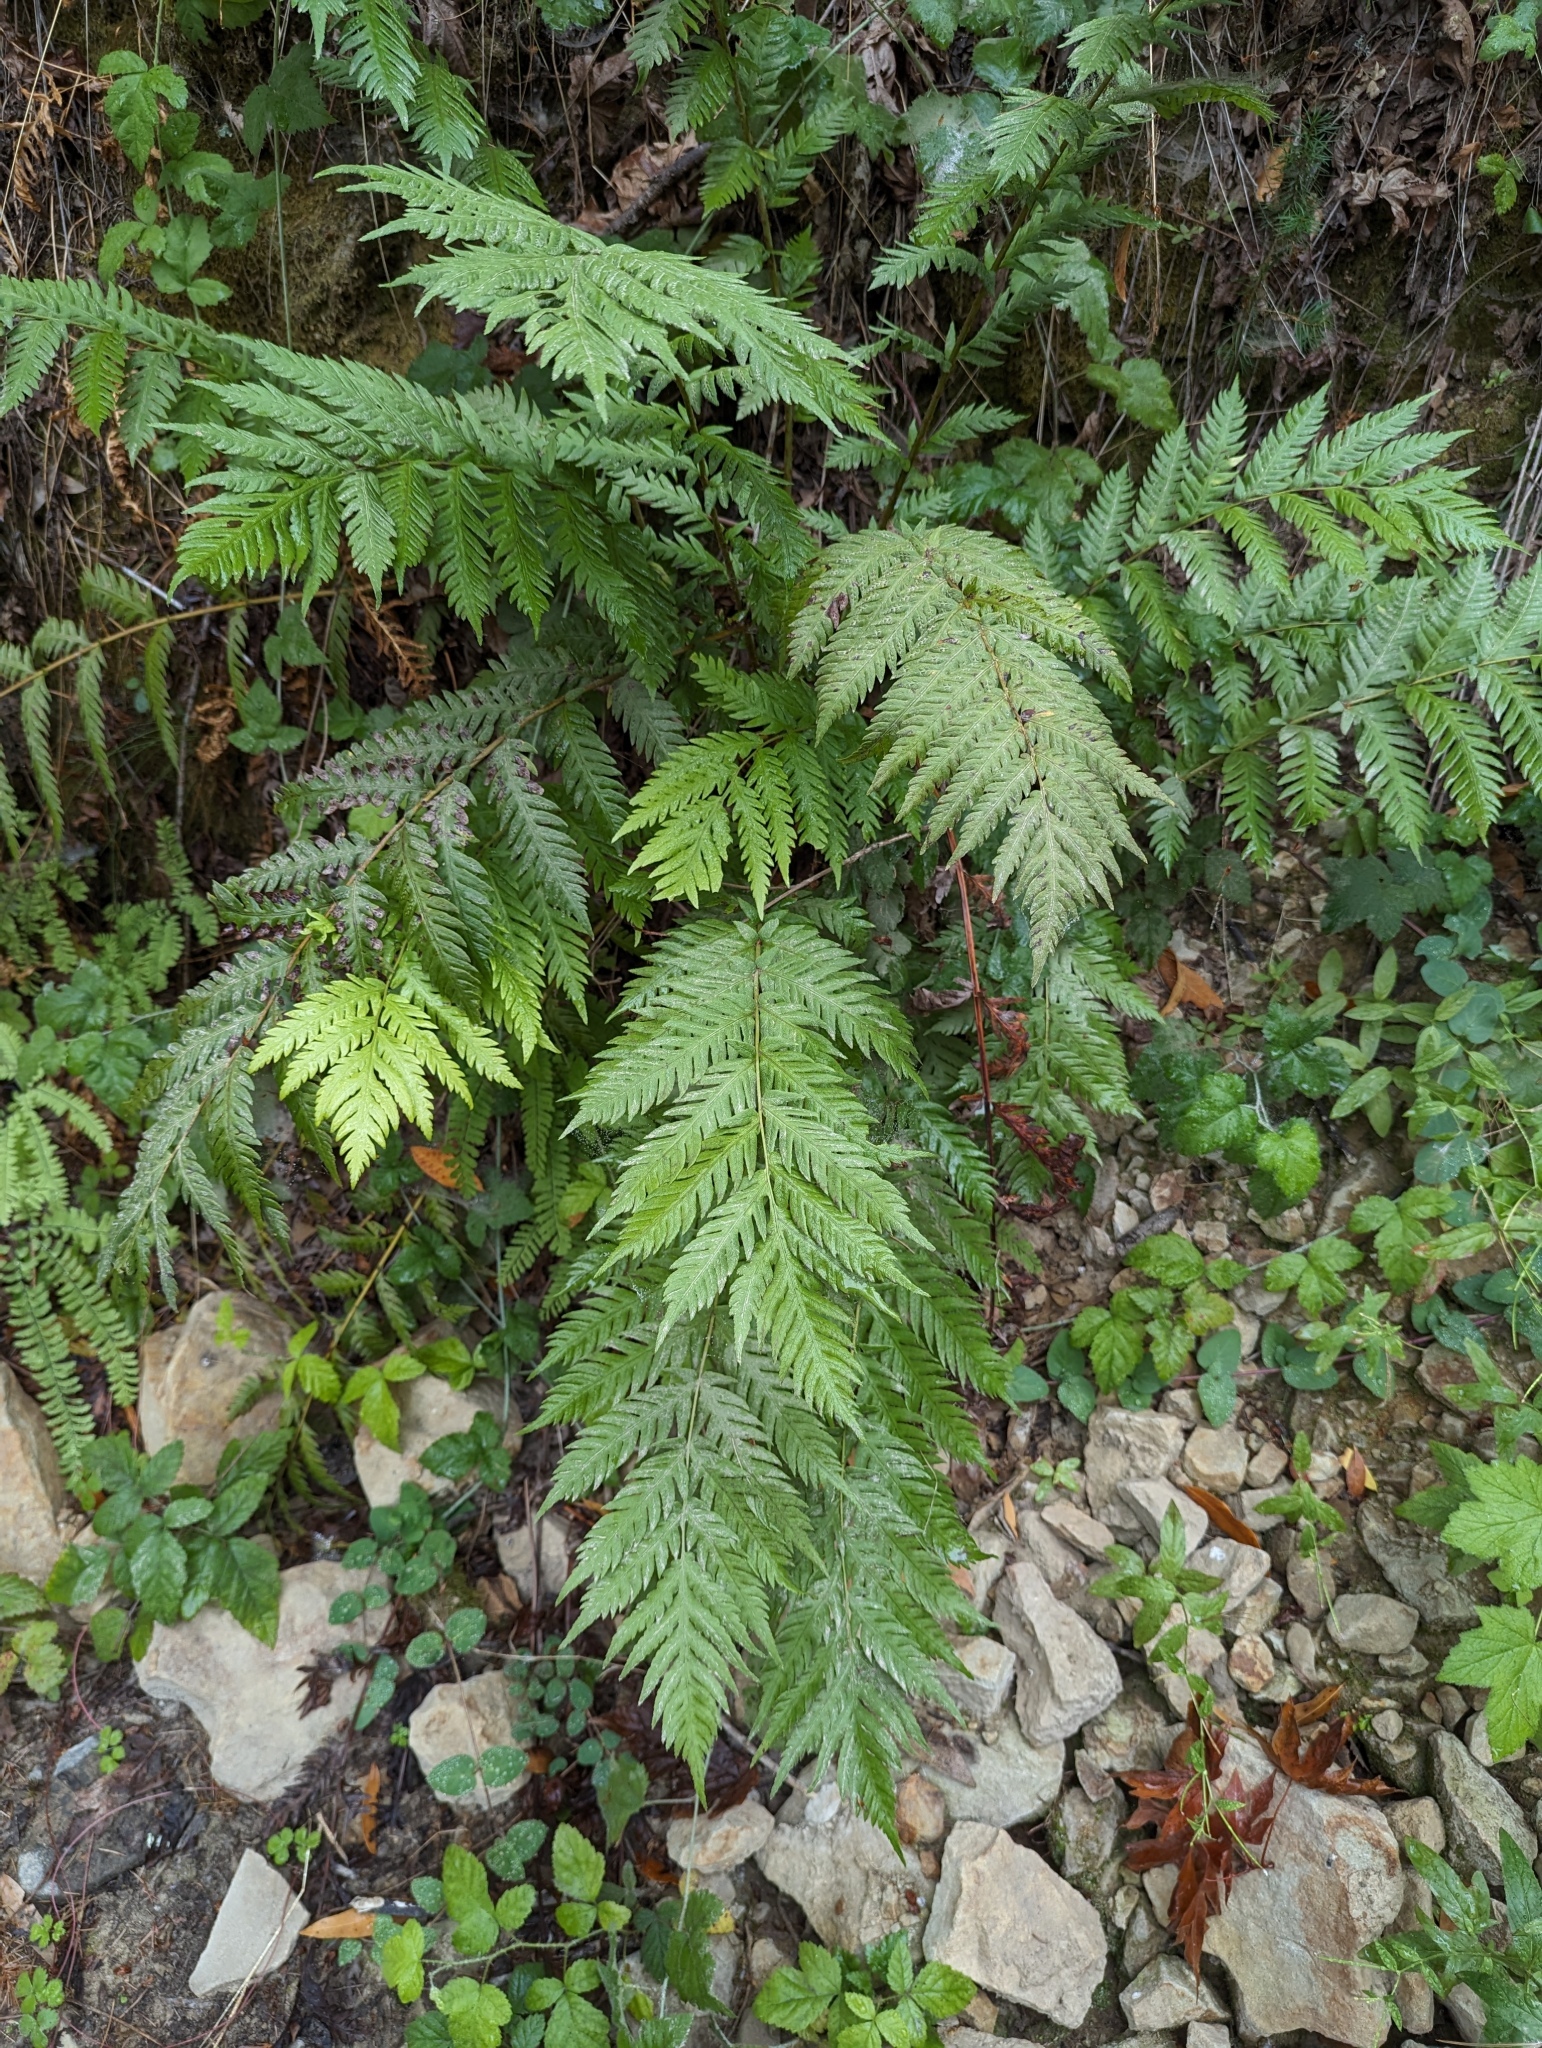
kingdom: Plantae
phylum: Tracheophyta
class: Polypodiopsida
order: Polypodiales
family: Blechnaceae
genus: Woodwardia
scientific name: Woodwardia fimbriata
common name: Giant chain fern
